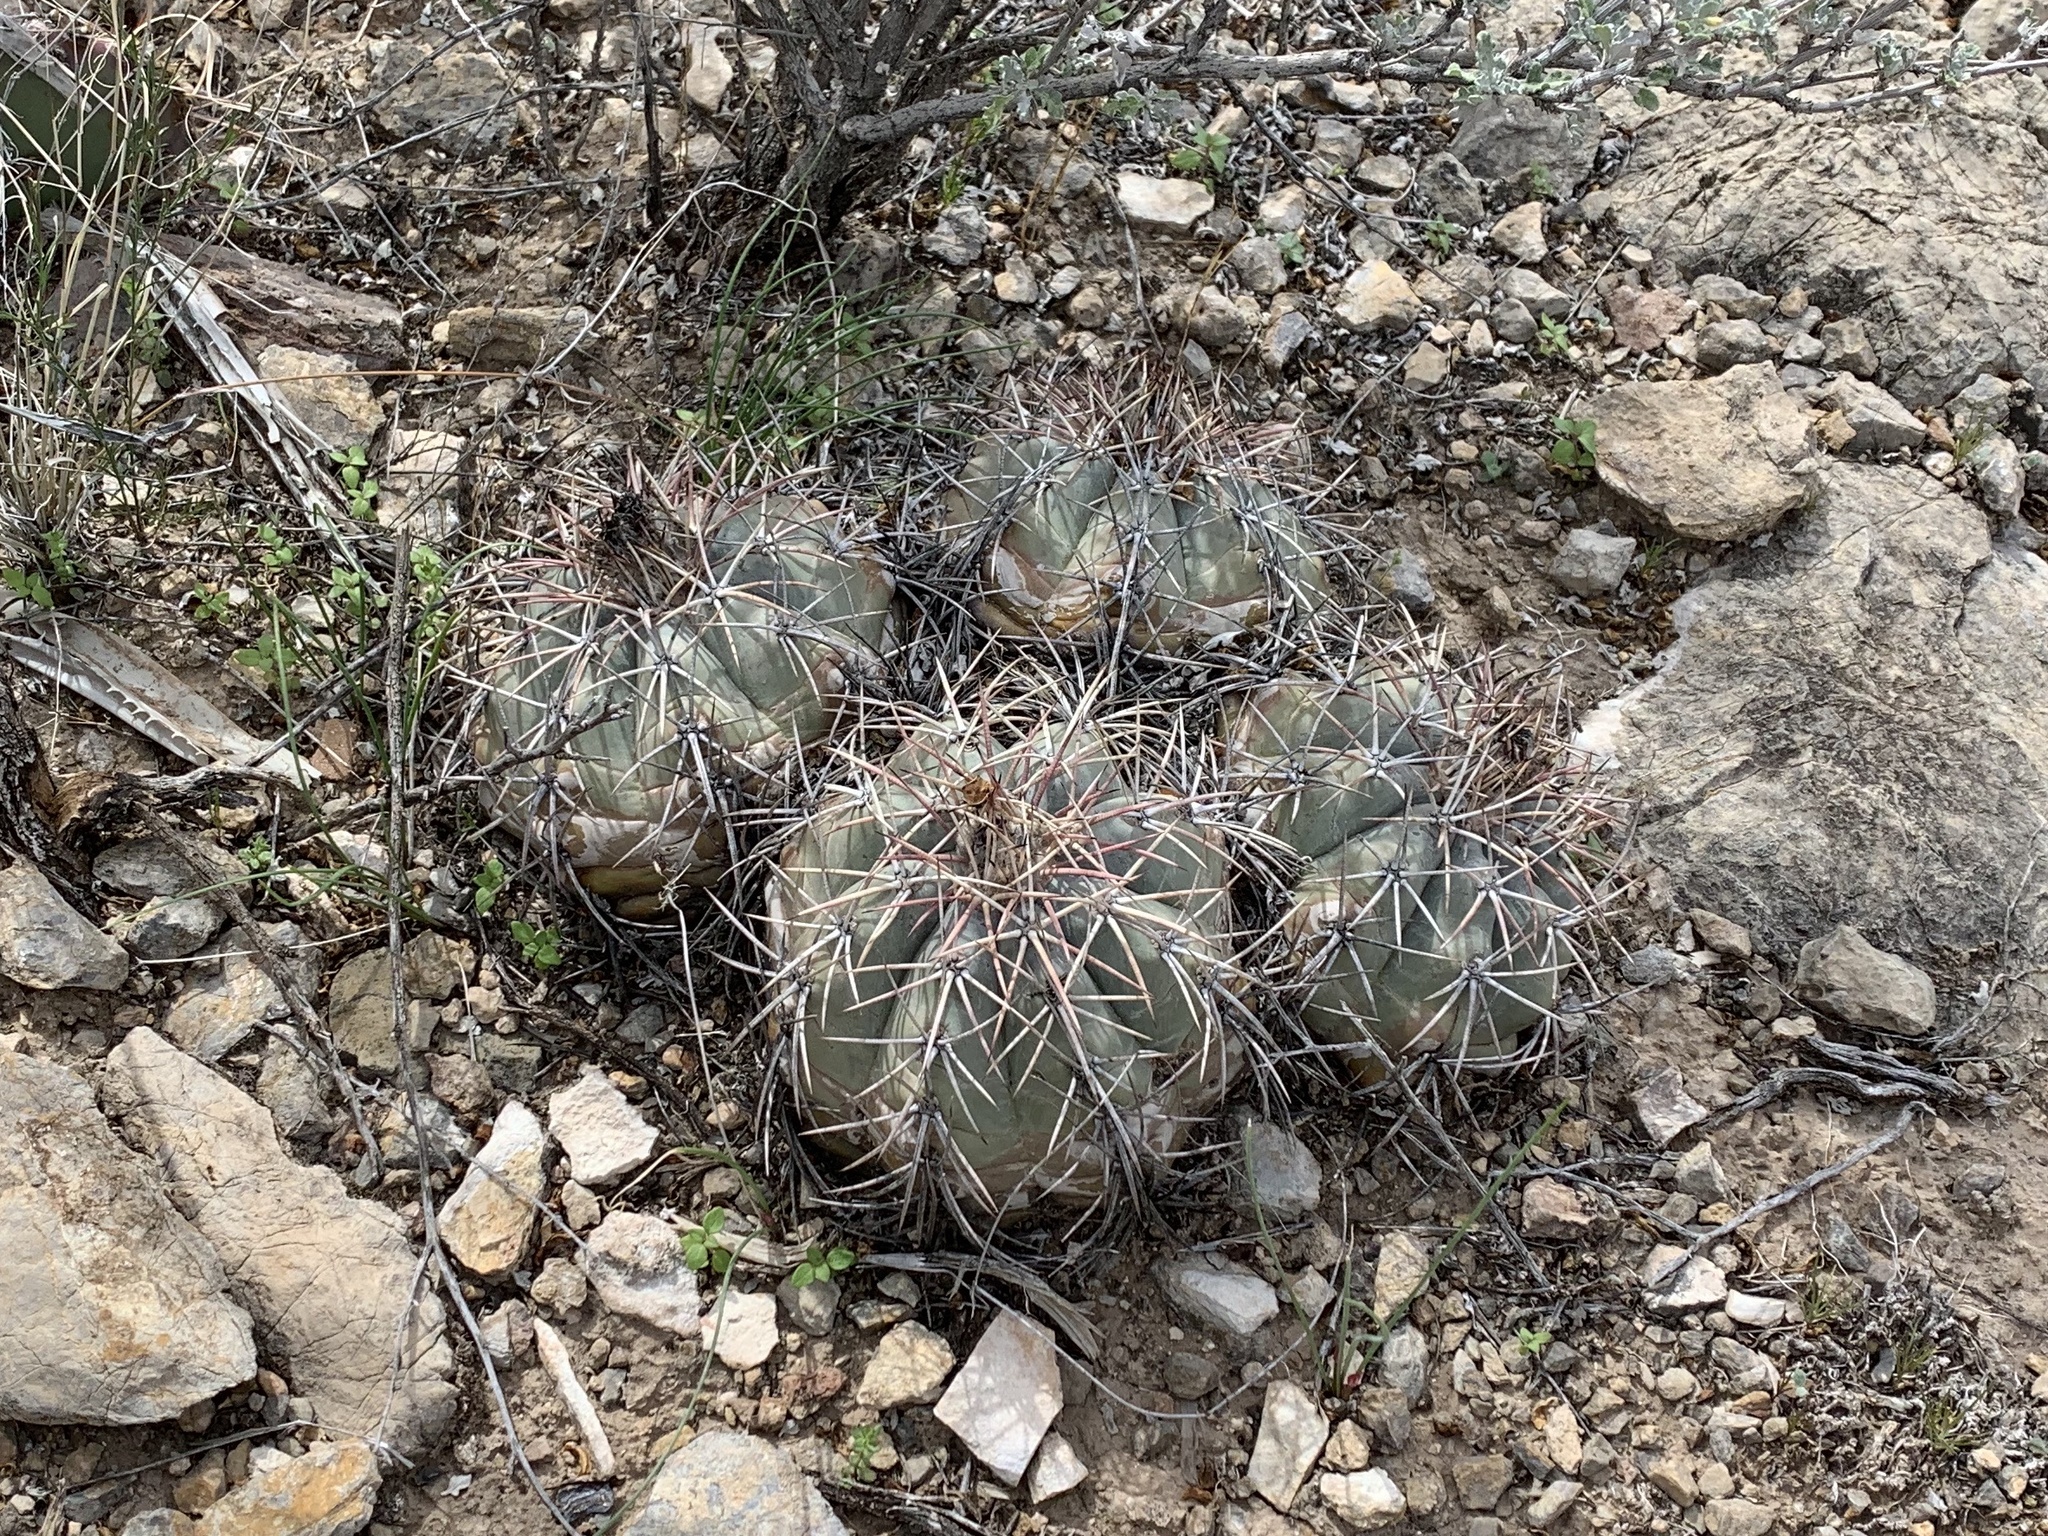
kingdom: Plantae
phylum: Tracheophyta
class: Magnoliopsida
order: Caryophyllales
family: Cactaceae
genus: Echinocactus
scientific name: Echinocactus horizonthalonius
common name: Devilshead
